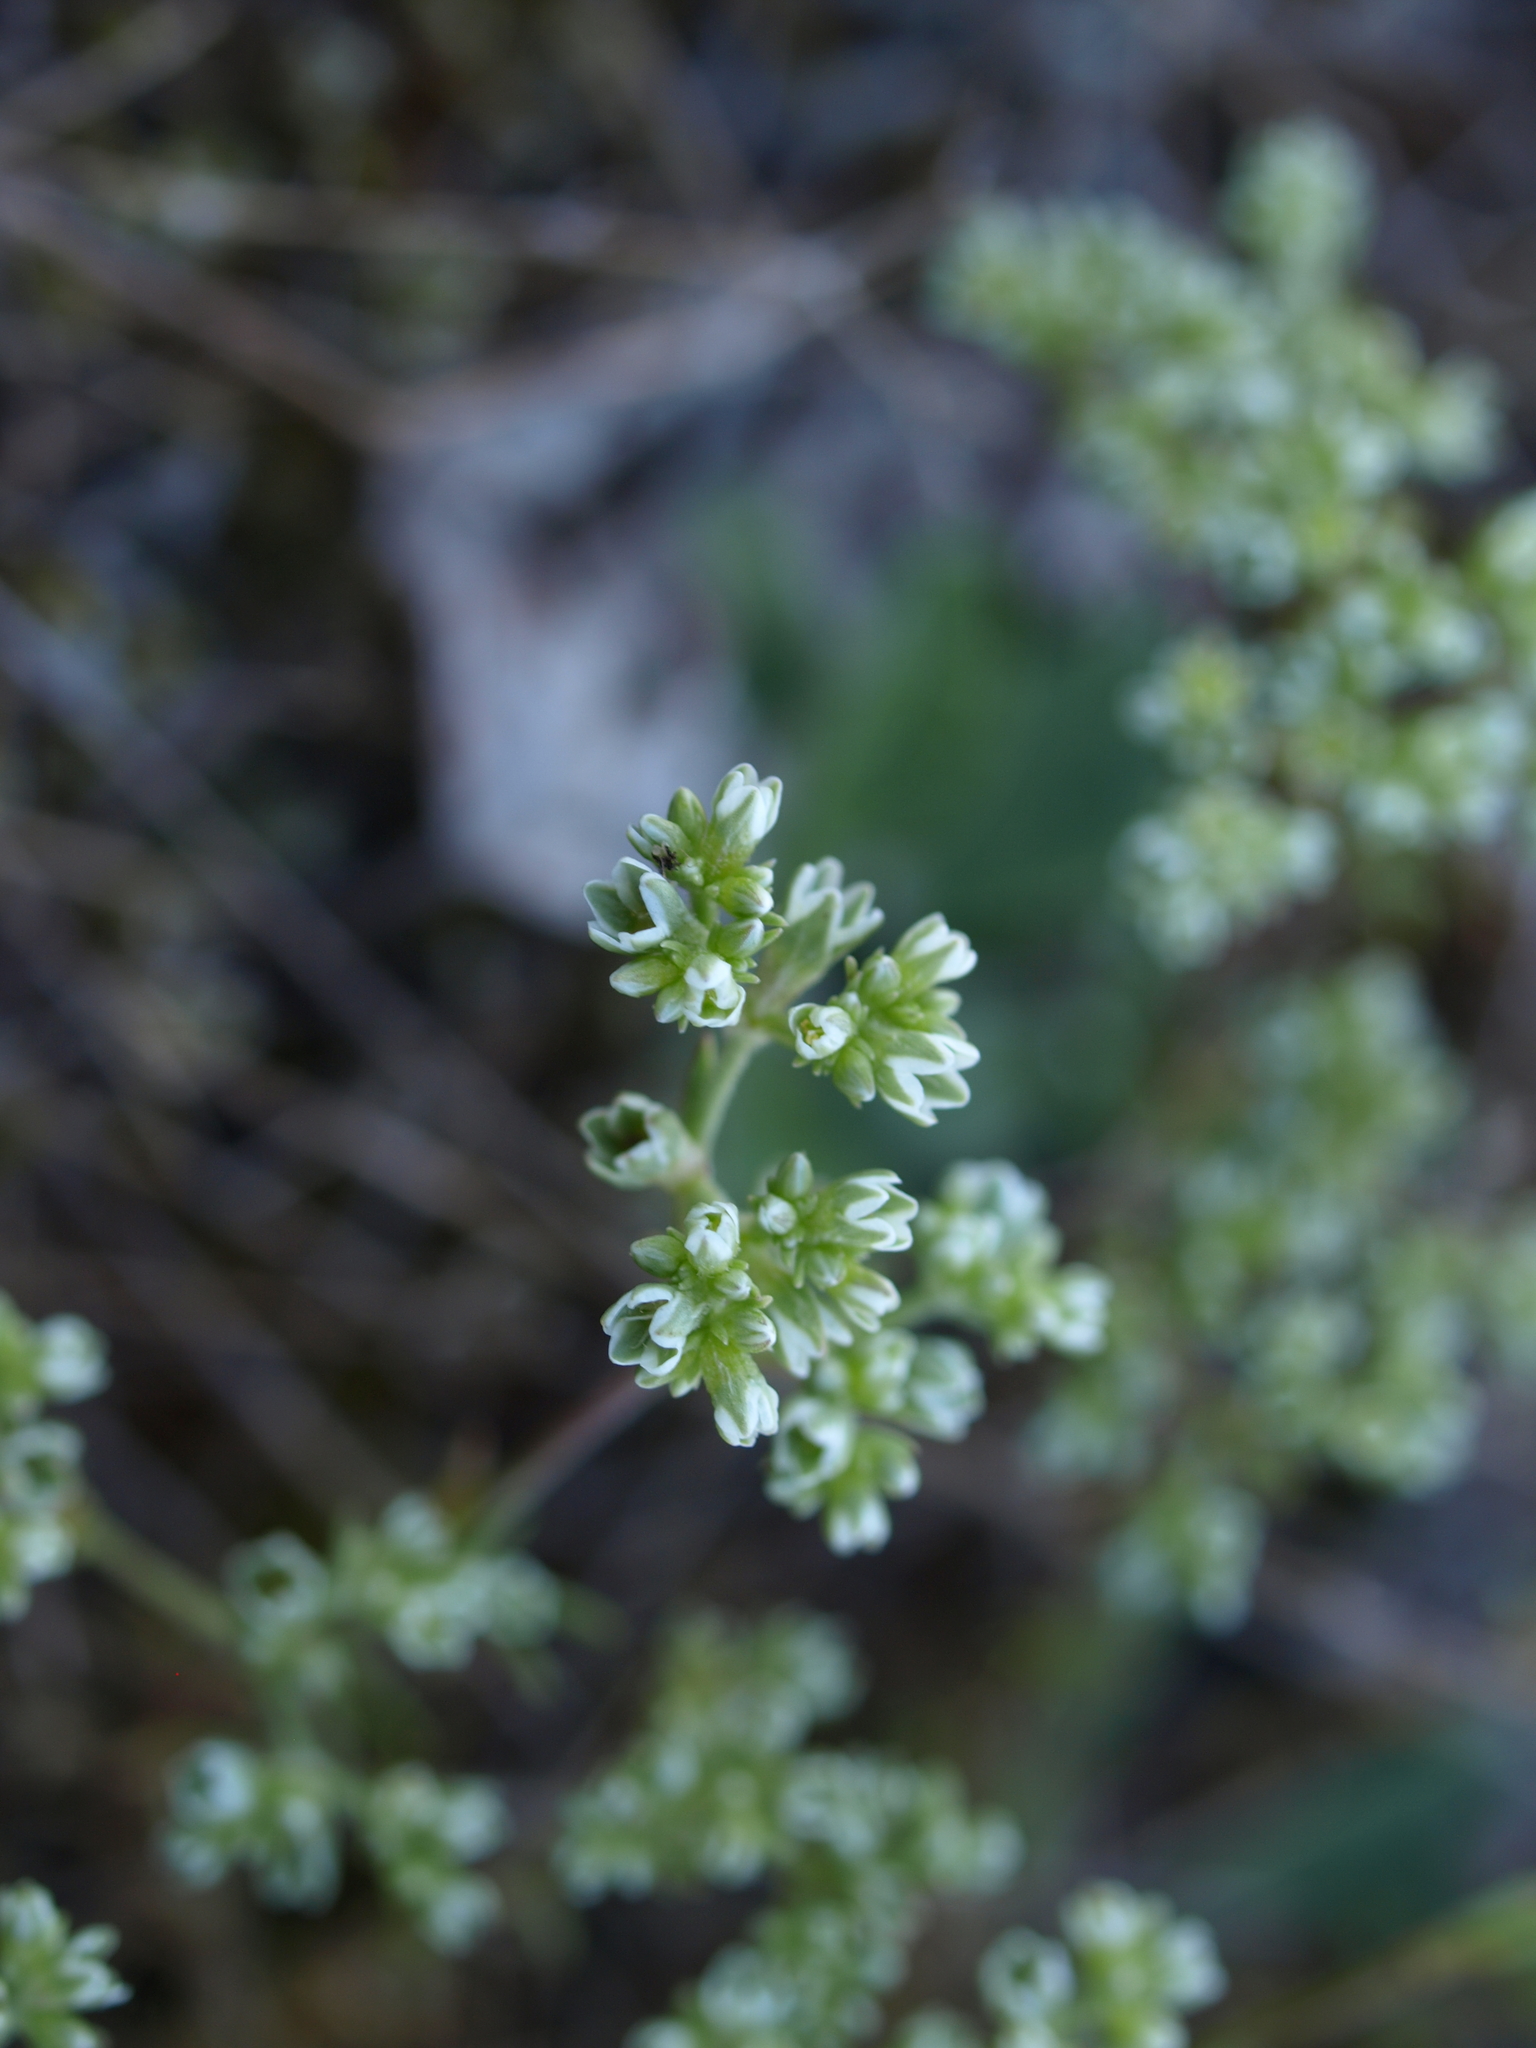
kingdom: Plantae
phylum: Tracheophyta
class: Magnoliopsida
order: Caryophyllales
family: Caryophyllaceae
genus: Scleranthus
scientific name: Scleranthus perennis
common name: Perennial knawel
